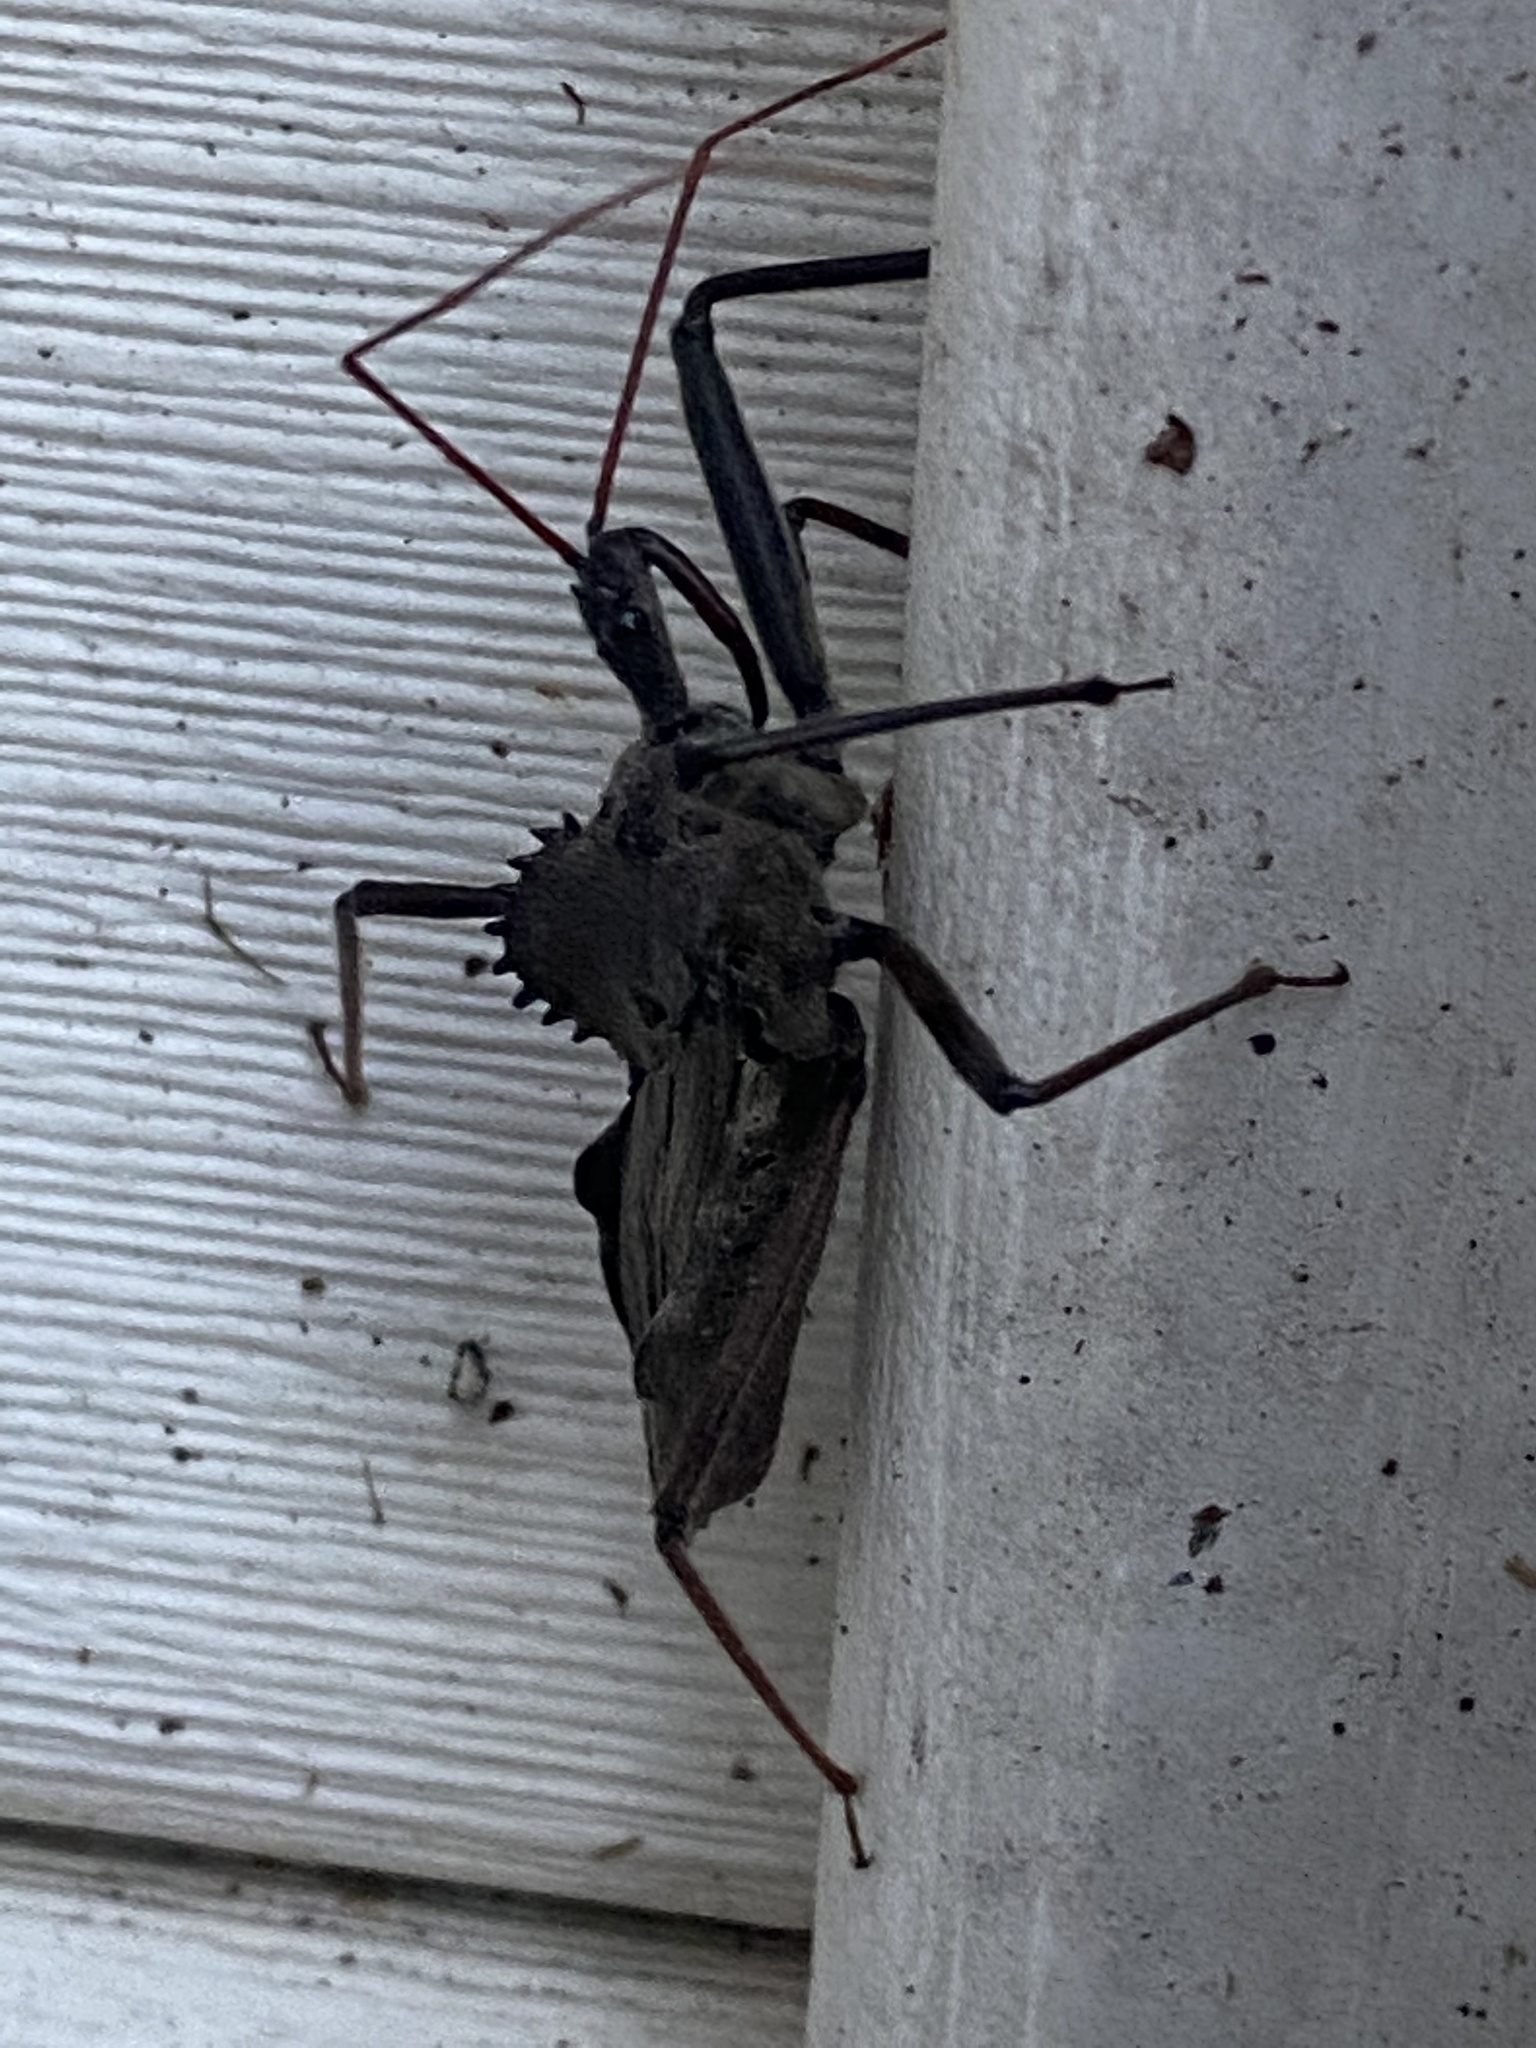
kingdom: Animalia
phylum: Arthropoda
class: Insecta
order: Hemiptera
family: Reduviidae
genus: Arilus
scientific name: Arilus cristatus
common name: North american wheel bug
